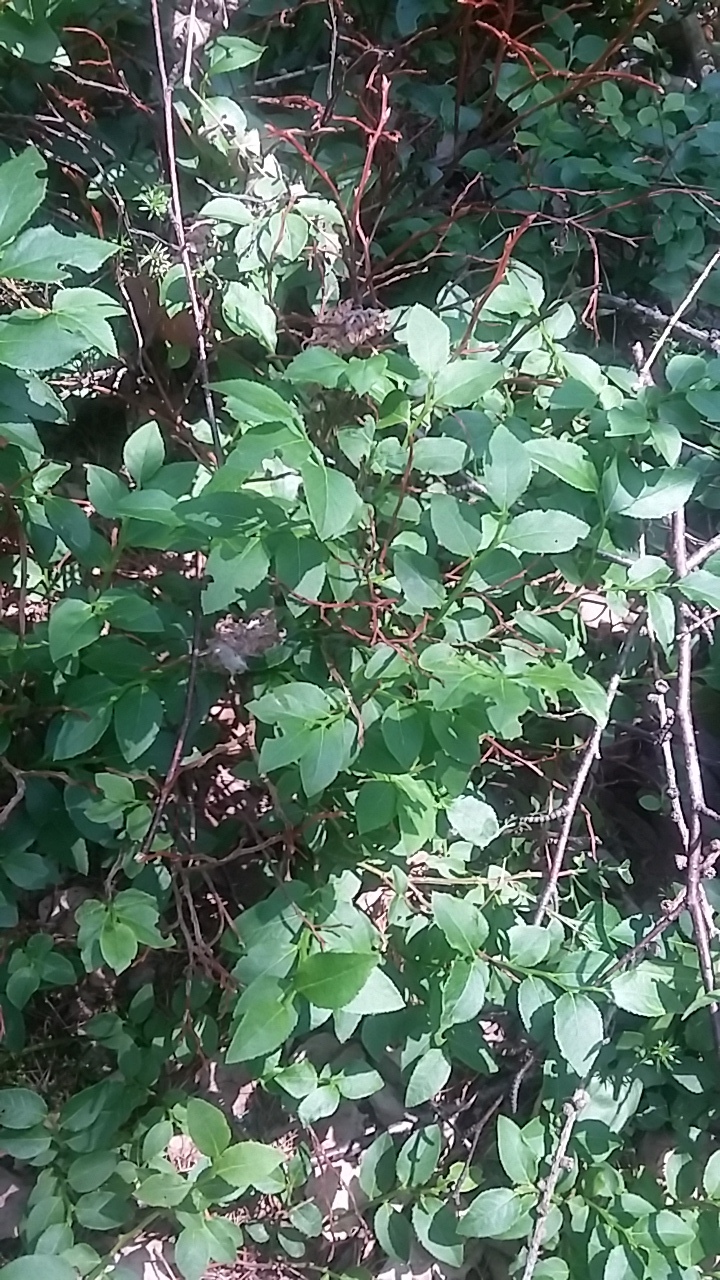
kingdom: Plantae
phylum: Tracheophyta
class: Magnoliopsida
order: Ericales
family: Ericaceae
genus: Vaccinium
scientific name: Vaccinium myrtillus
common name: Bilberry
